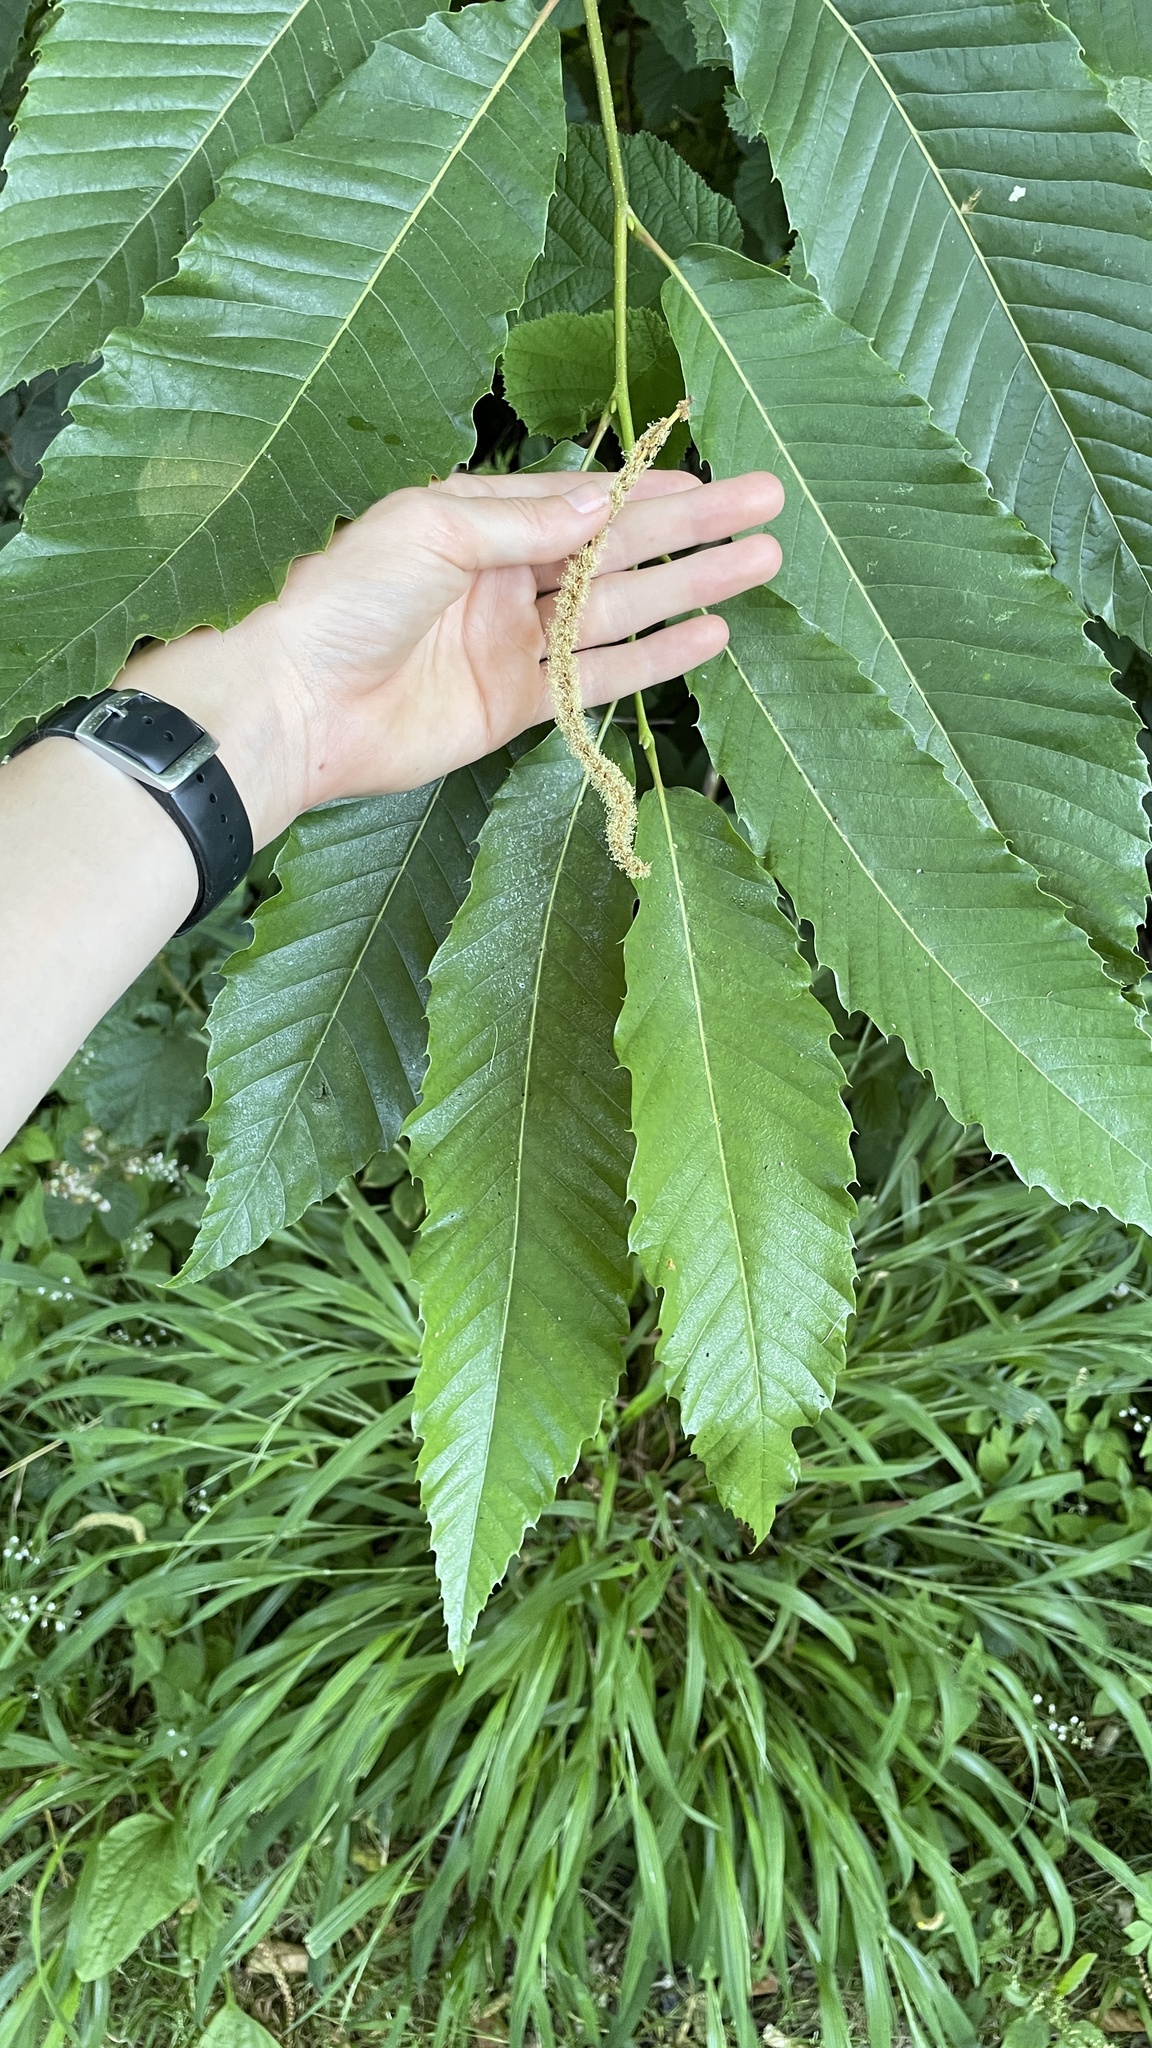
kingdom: Plantae
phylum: Tracheophyta
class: Magnoliopsida
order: Fagales
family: Fagaceae
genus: Castanea
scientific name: Castanea sativa
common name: Sweet chestnut
